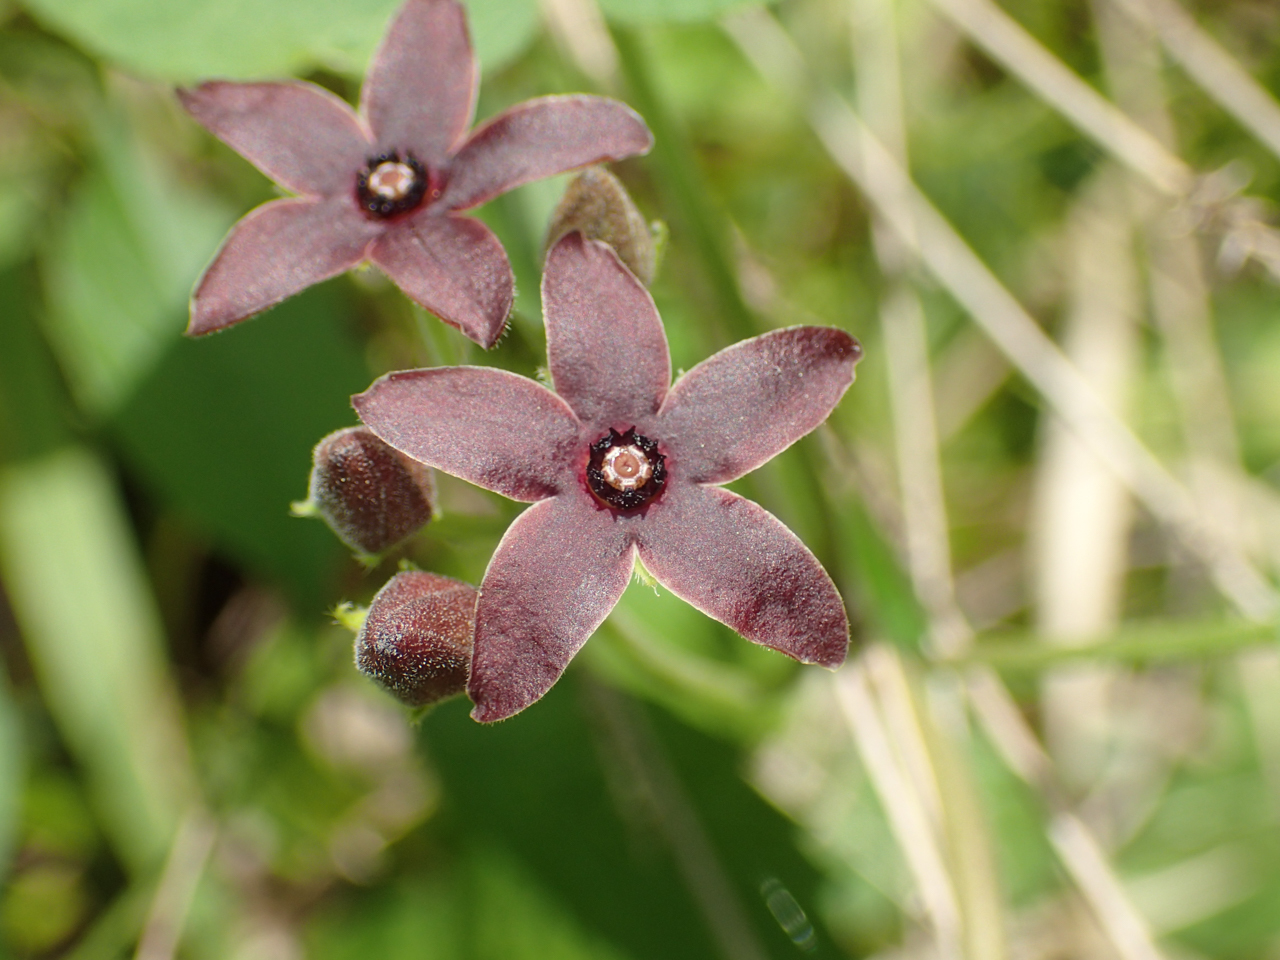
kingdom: Plantae
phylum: Tracheophyta
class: Magnoliopsida
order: Gentianales
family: Apocynaceae
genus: Matelea
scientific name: Matelea carolinensis
